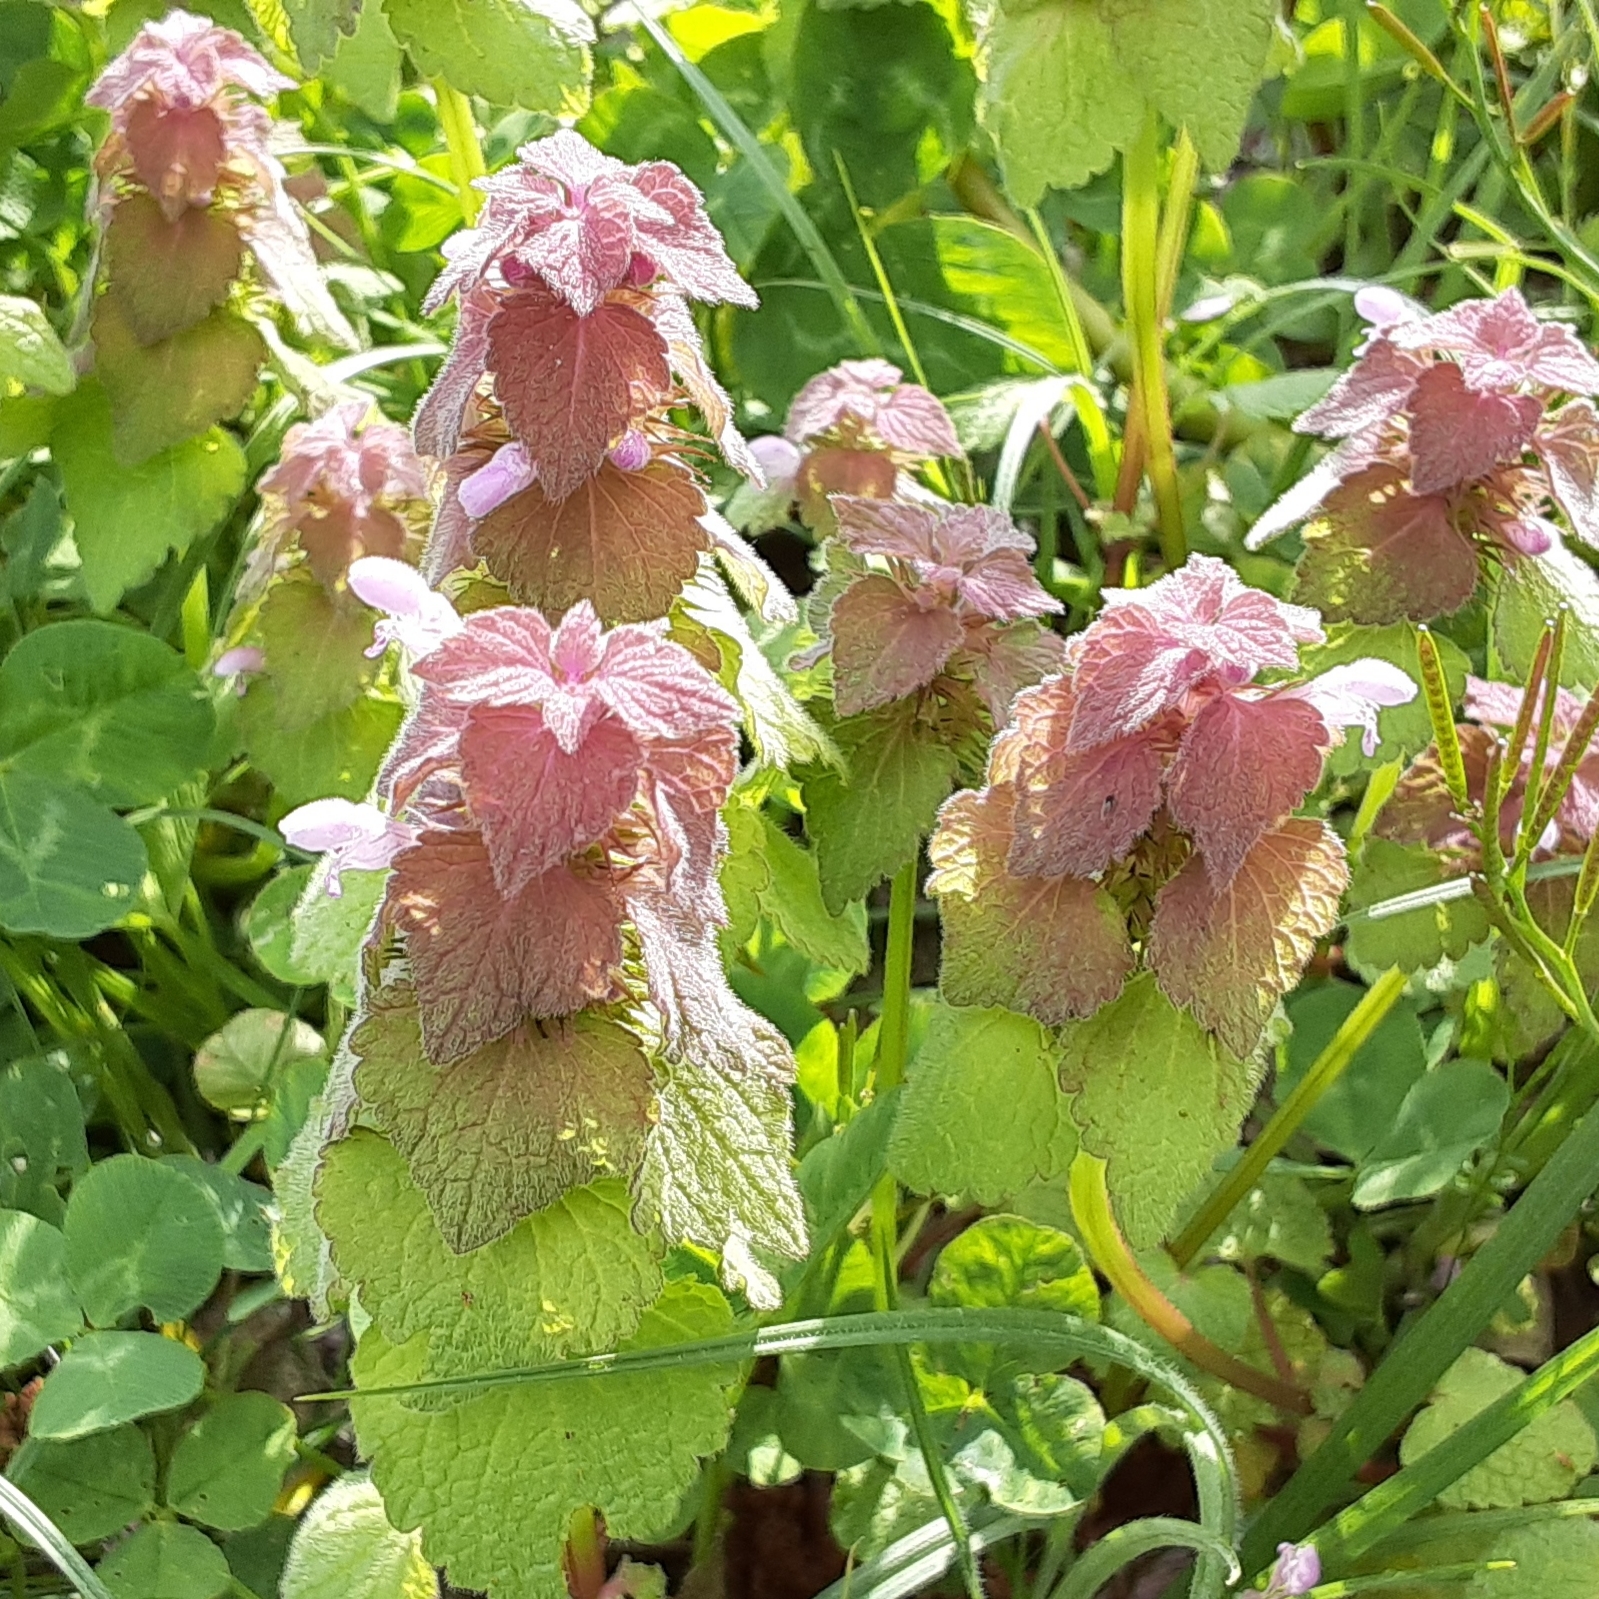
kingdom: Plantae
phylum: Tracheophyta
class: Magnoliopsida
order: Lamiales
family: Lamiaceae
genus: Lamium
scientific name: Lamium purpureum
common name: Red dead-nettle
